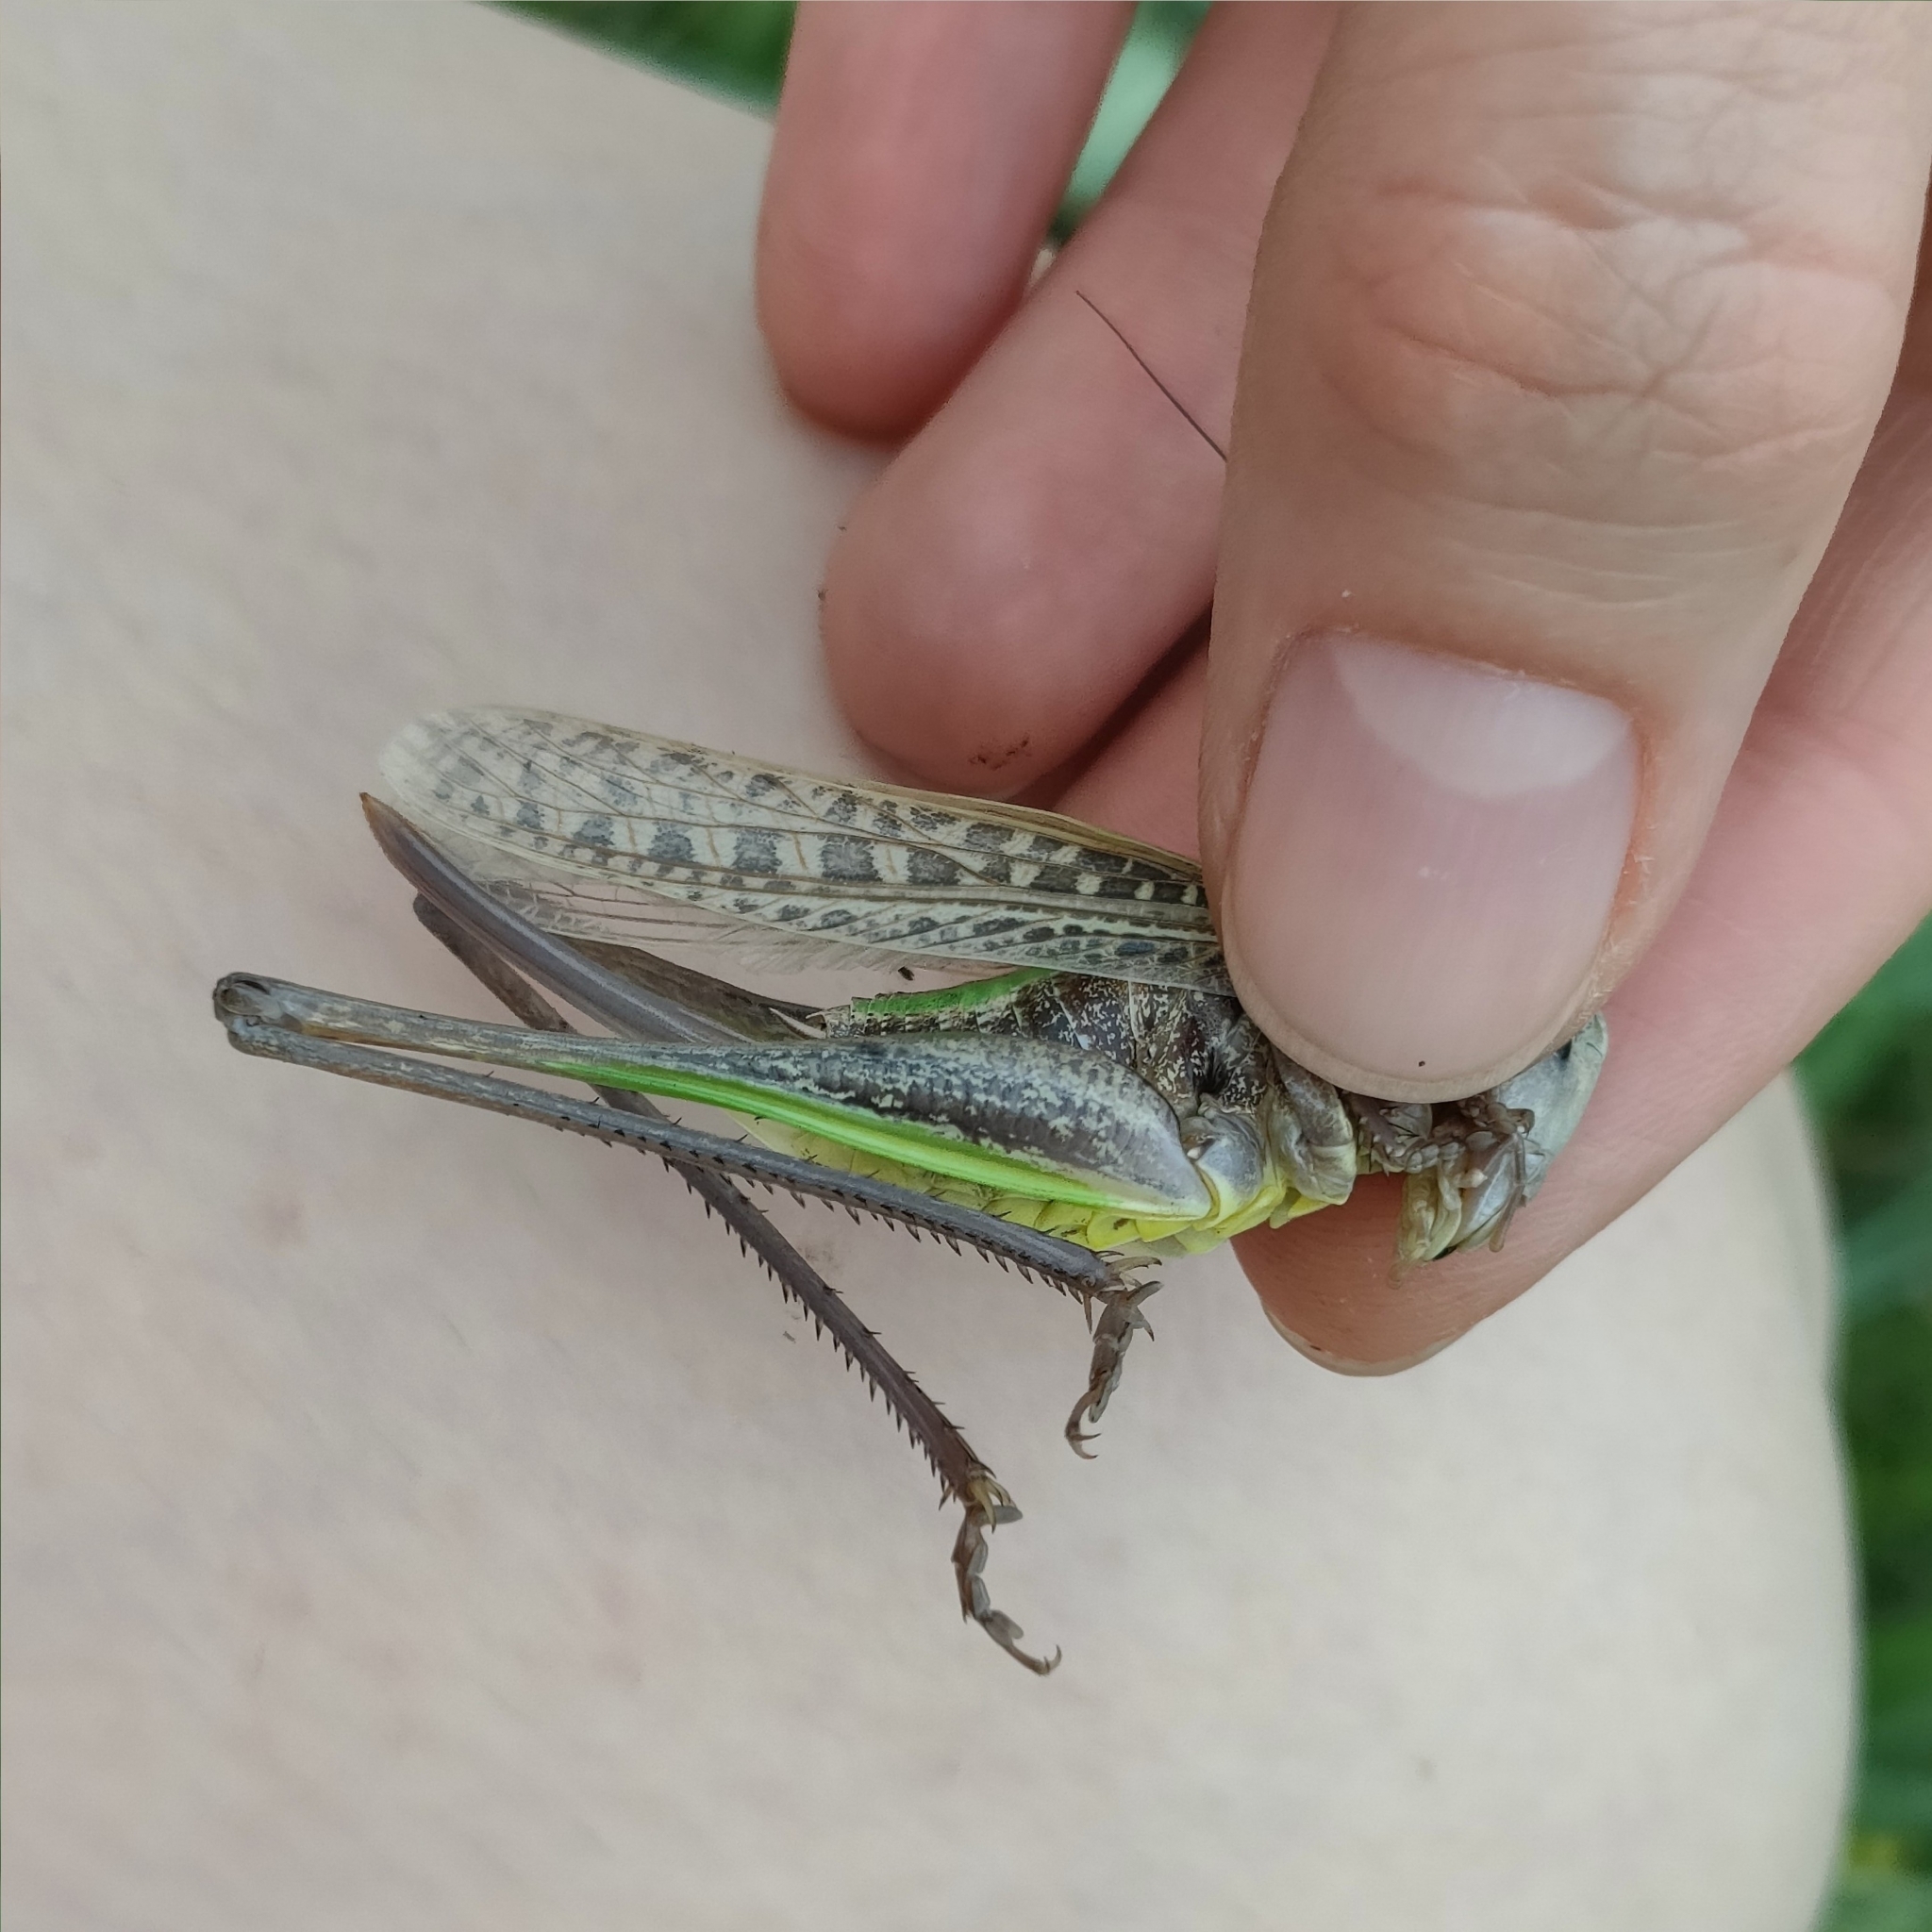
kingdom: Animalia
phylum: Arthropoda
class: Insecta
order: Orthoptera
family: Tettigoniidae
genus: Decticus
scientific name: Decticus verrucivorus
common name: Wart-biter
